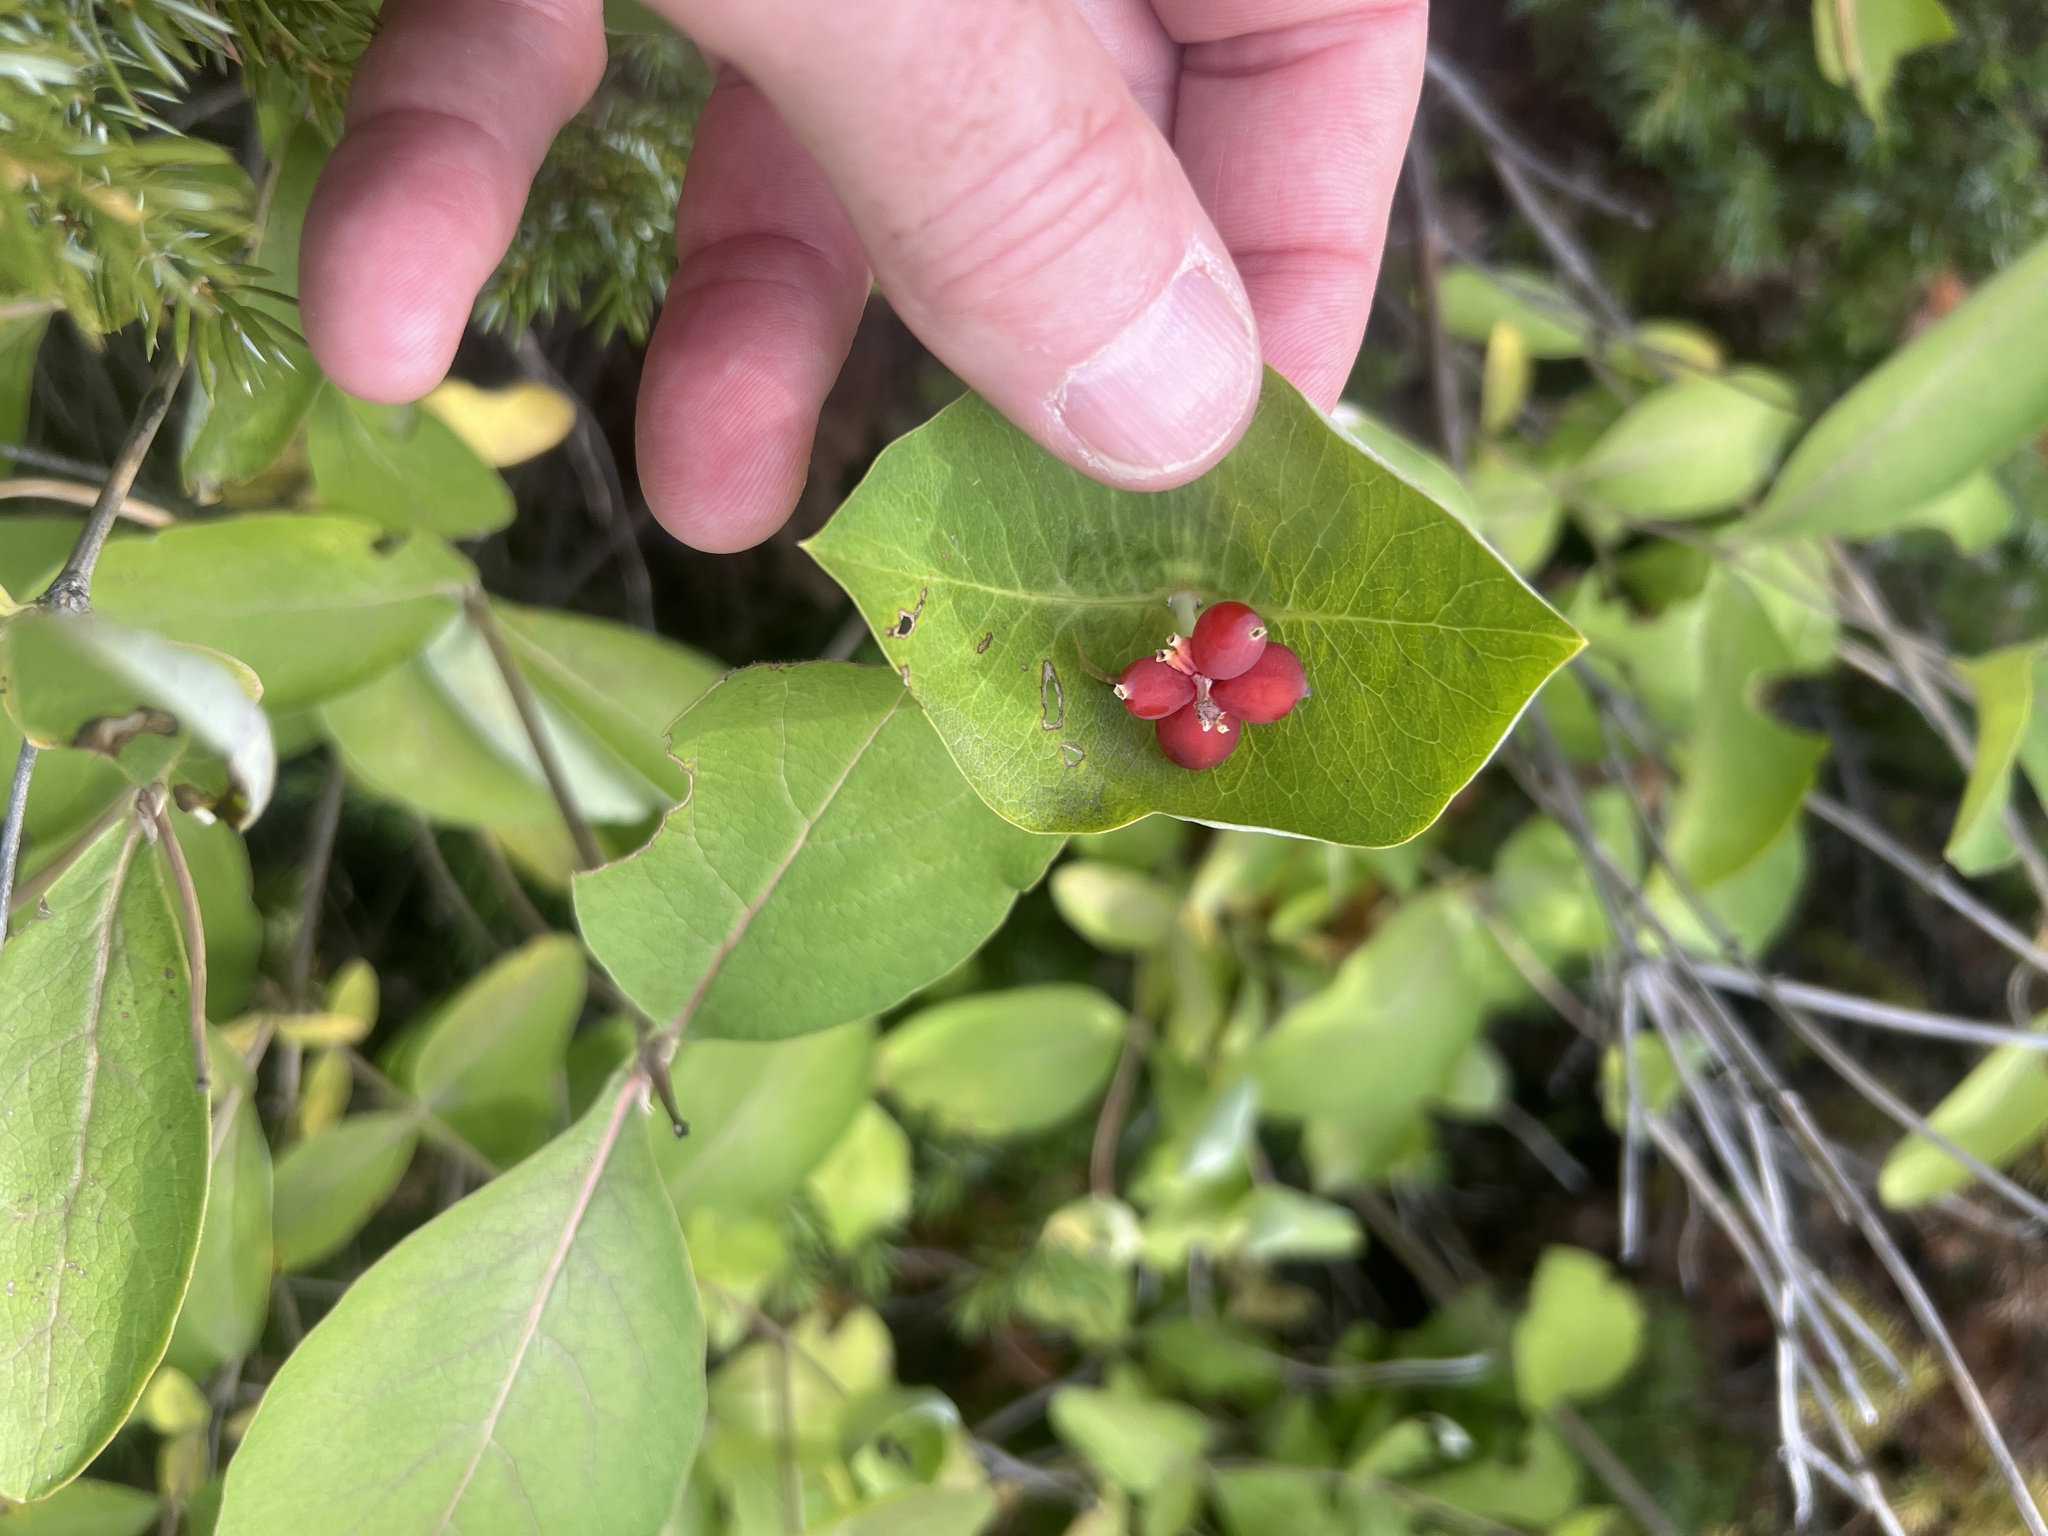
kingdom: Plantae
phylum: Tracheophyta
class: Magnoliopsida
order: Dipsacales
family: Caprifoliaceae
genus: Lonicera
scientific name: Lonicera dioica
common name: Limber honeysuckle
